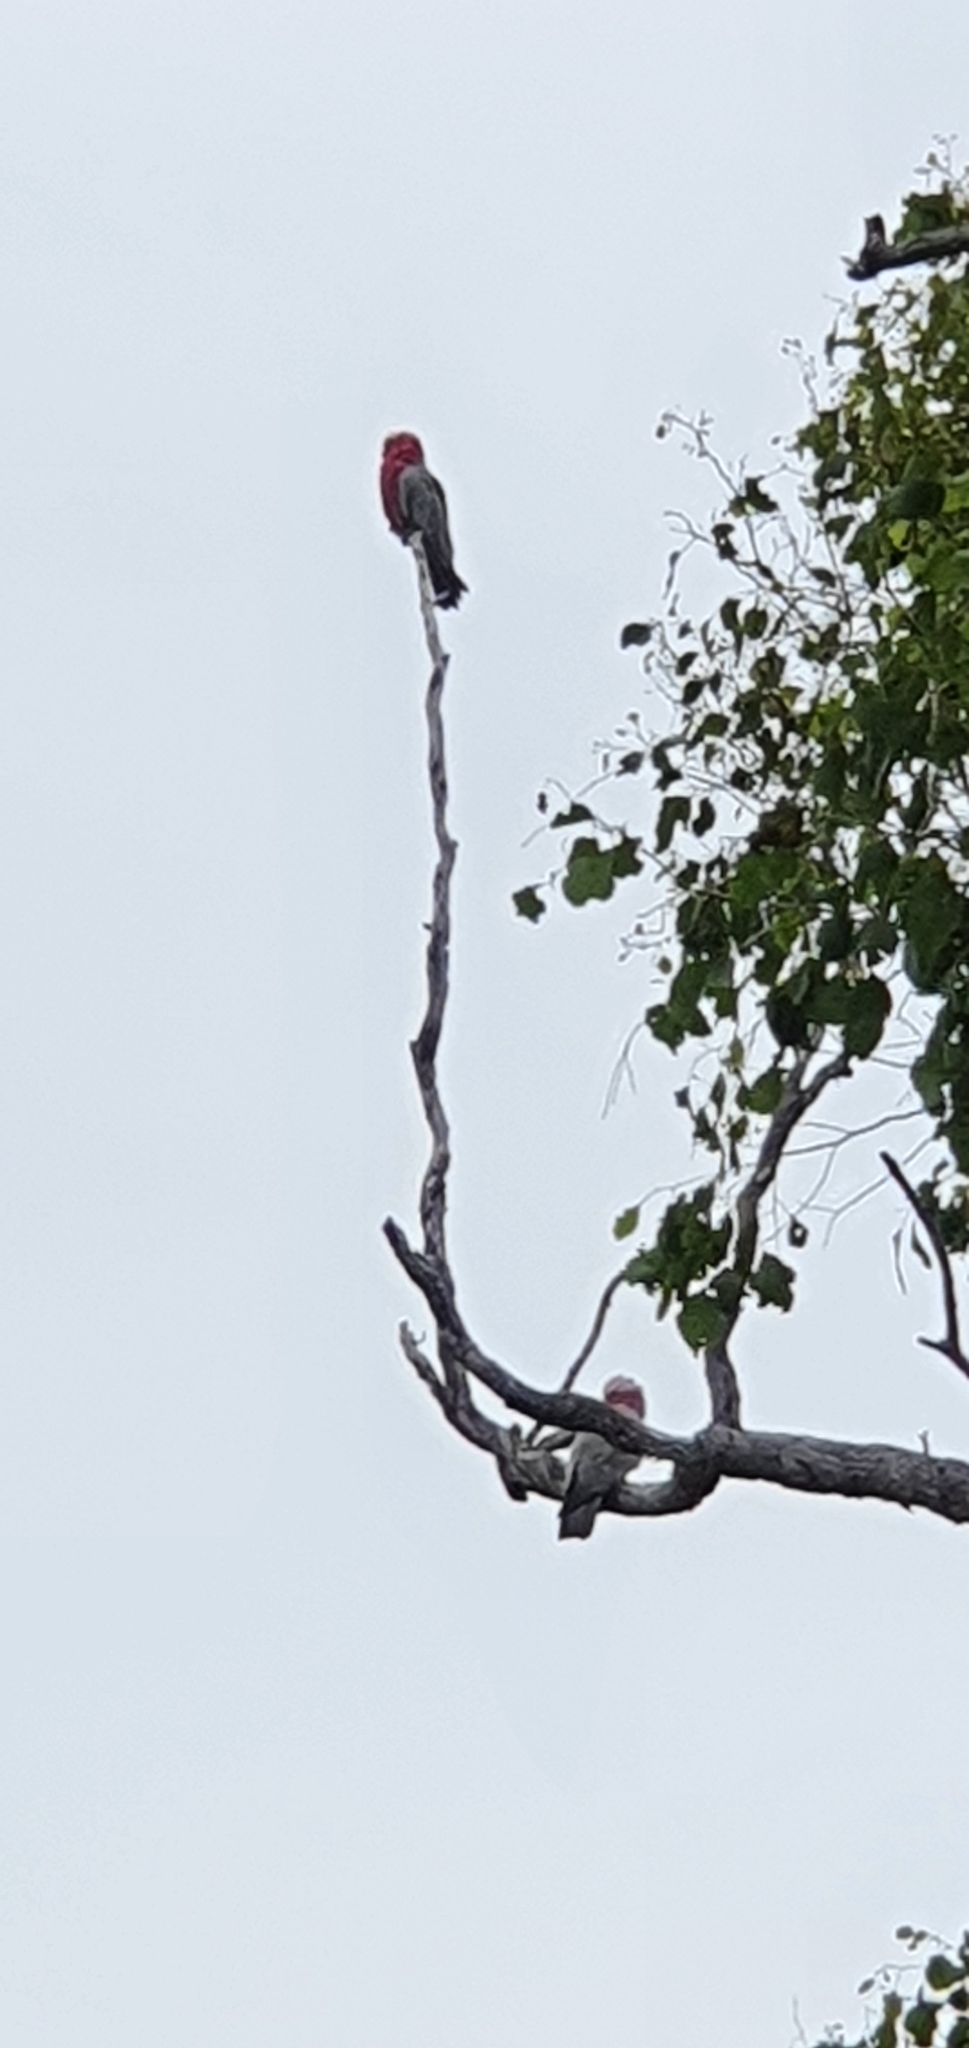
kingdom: Animalia
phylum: Chordata
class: Aves
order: Psittaciformes
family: Psittacidae
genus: Eolophus
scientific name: Eolophus roseicapilla
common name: Galah
